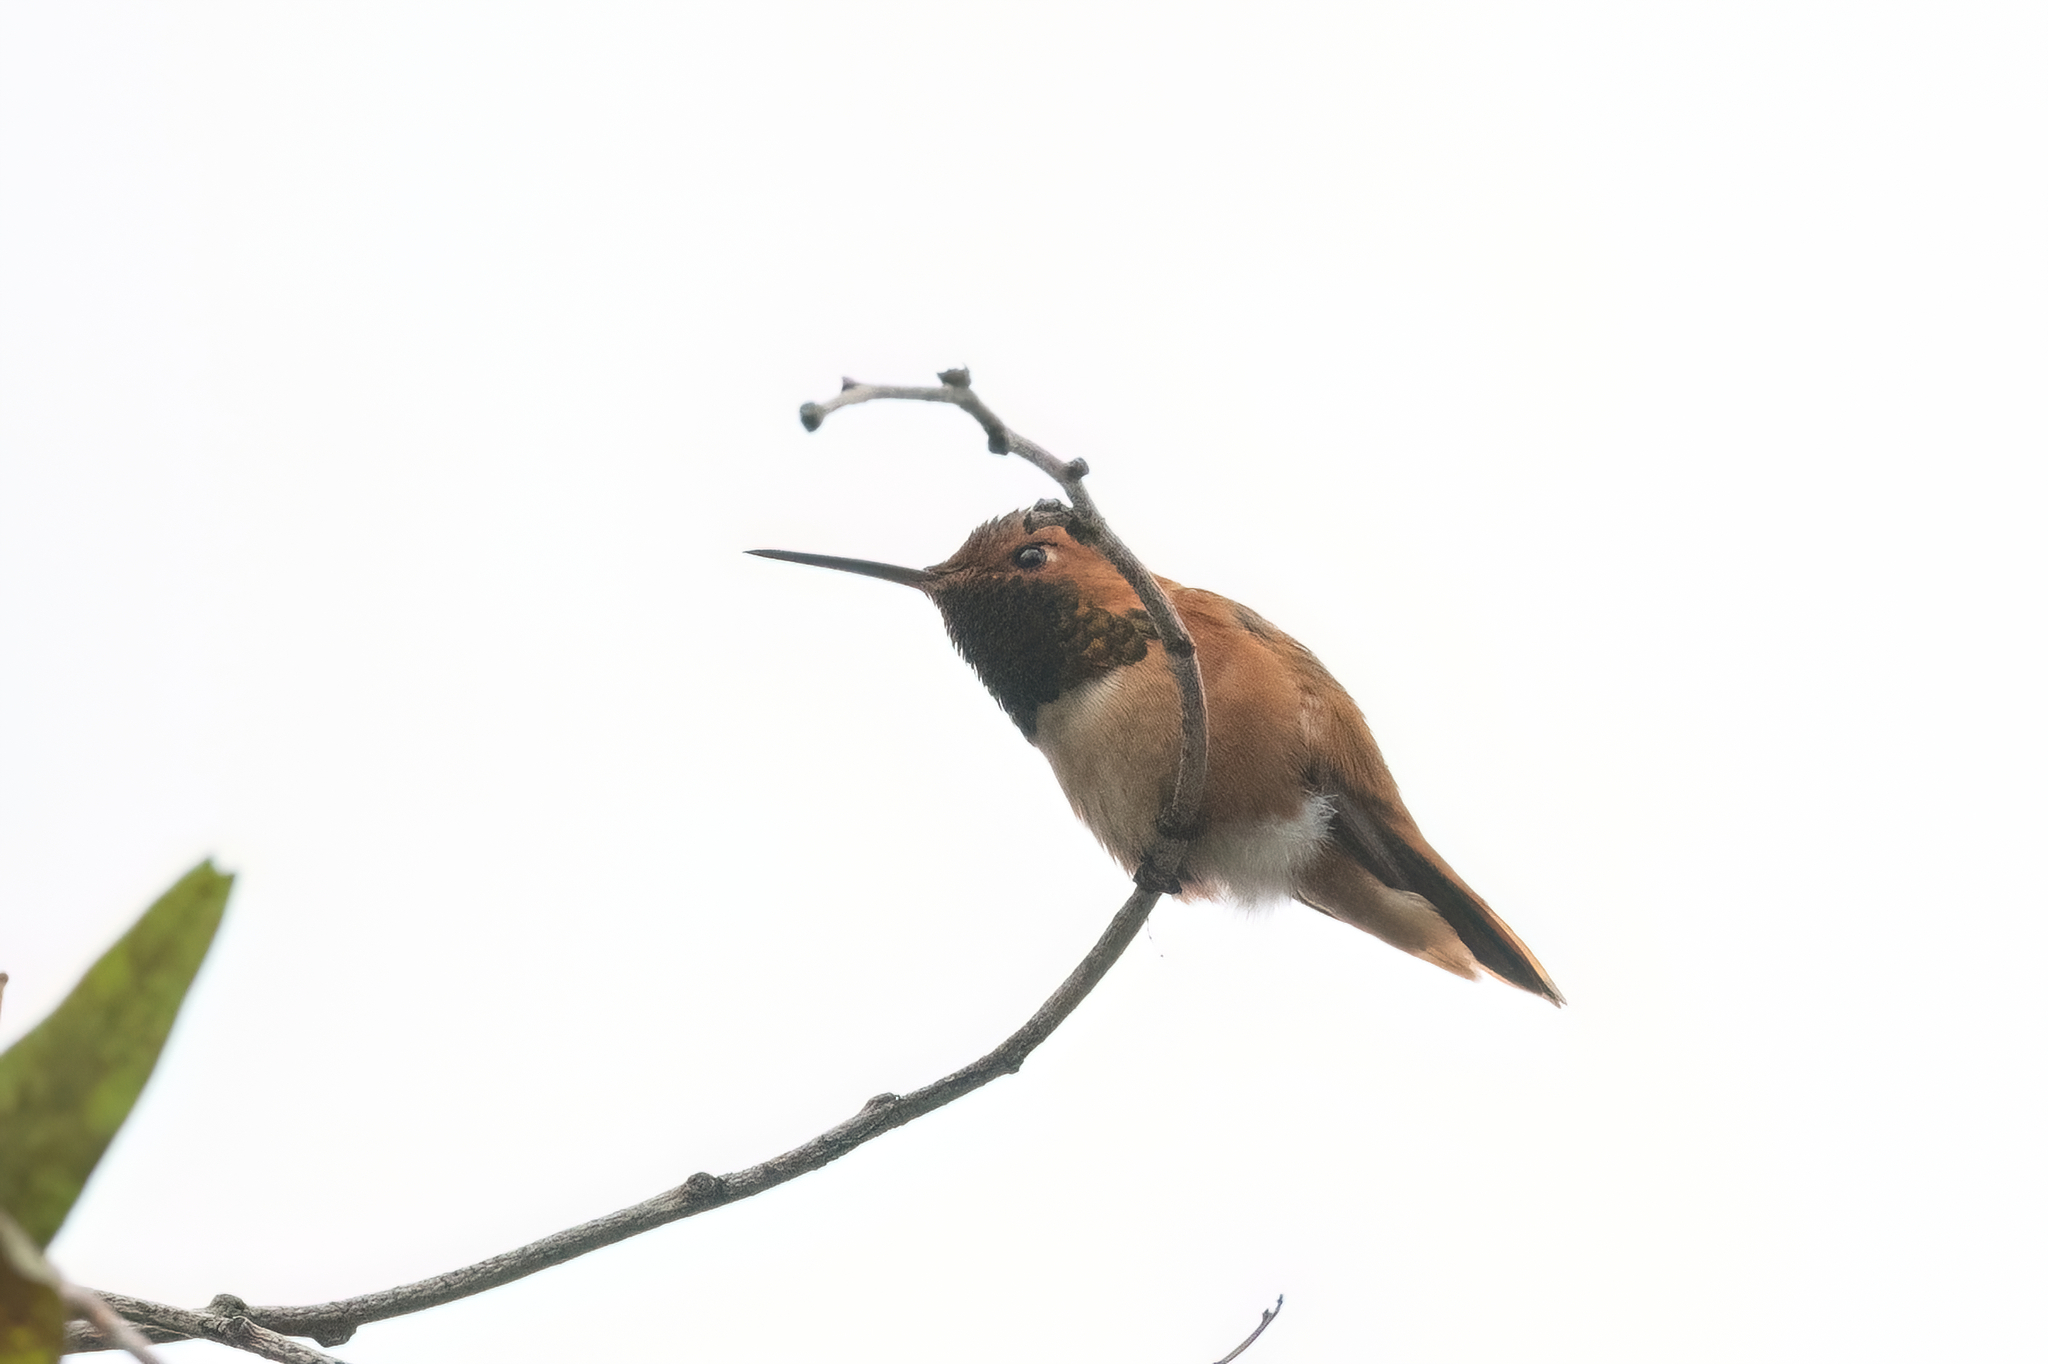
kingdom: Animalia
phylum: Chordata
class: Aves
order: Apodiformes
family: Trochilidae
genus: Selasphorus
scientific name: Selasphorus sasin
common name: Allen's hummingbird
